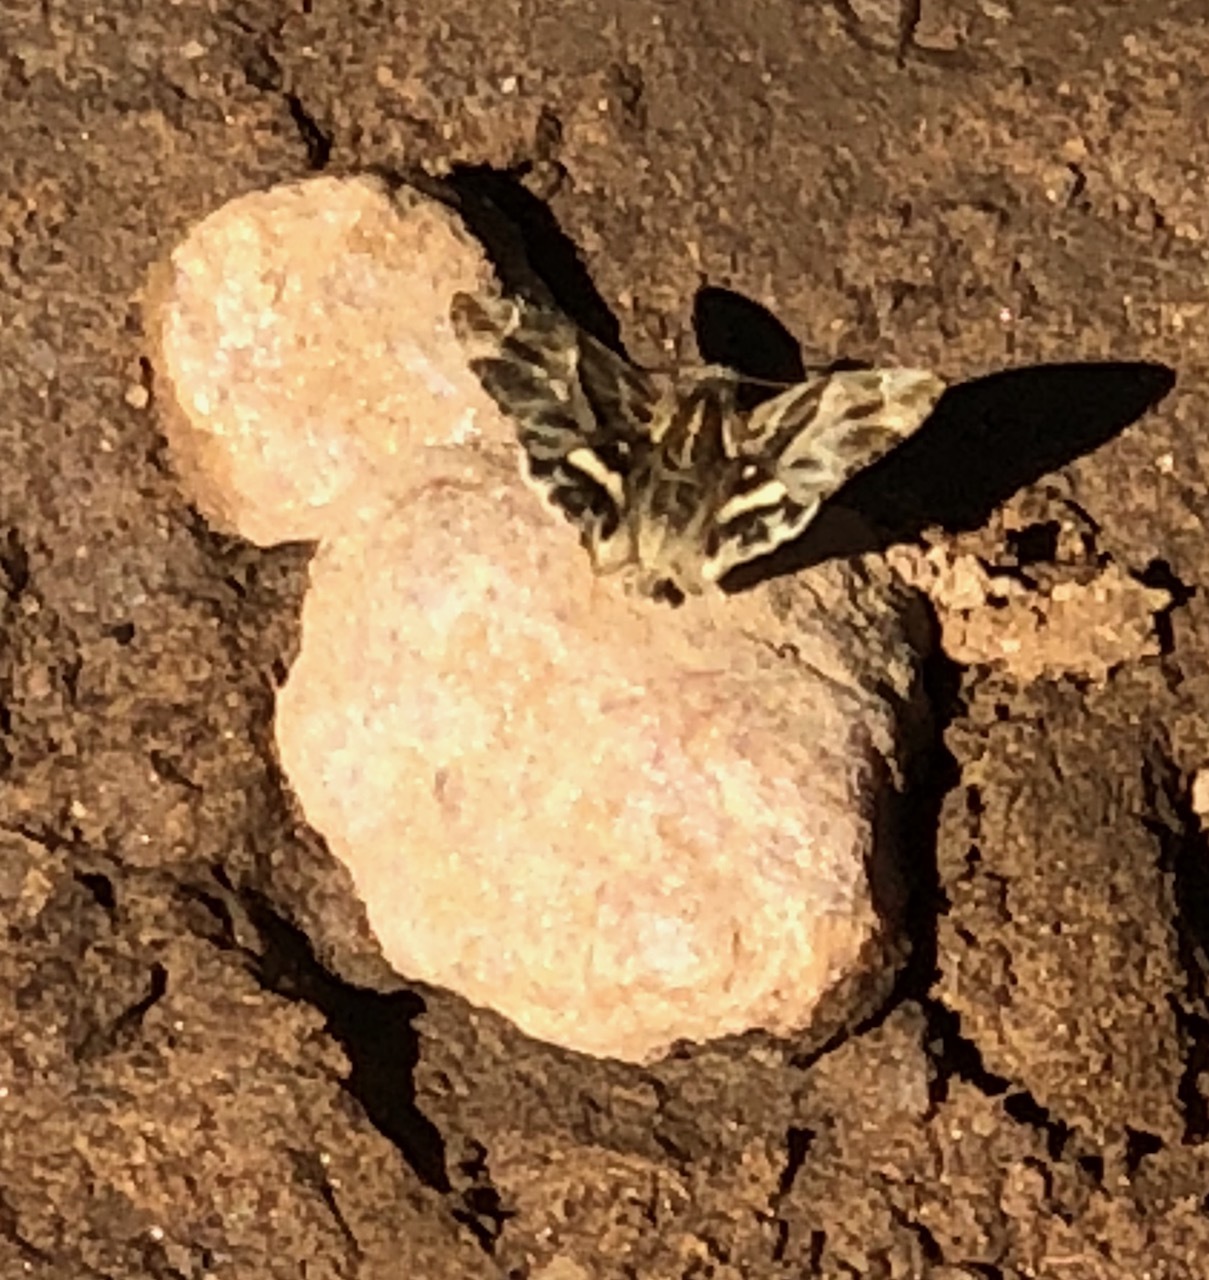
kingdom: Animalia
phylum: Arthropoda
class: Insecta
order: Lepidoptera
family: Hesperiidae
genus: Gomalia
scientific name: Gomalia elma
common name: Green-marbled skipper
